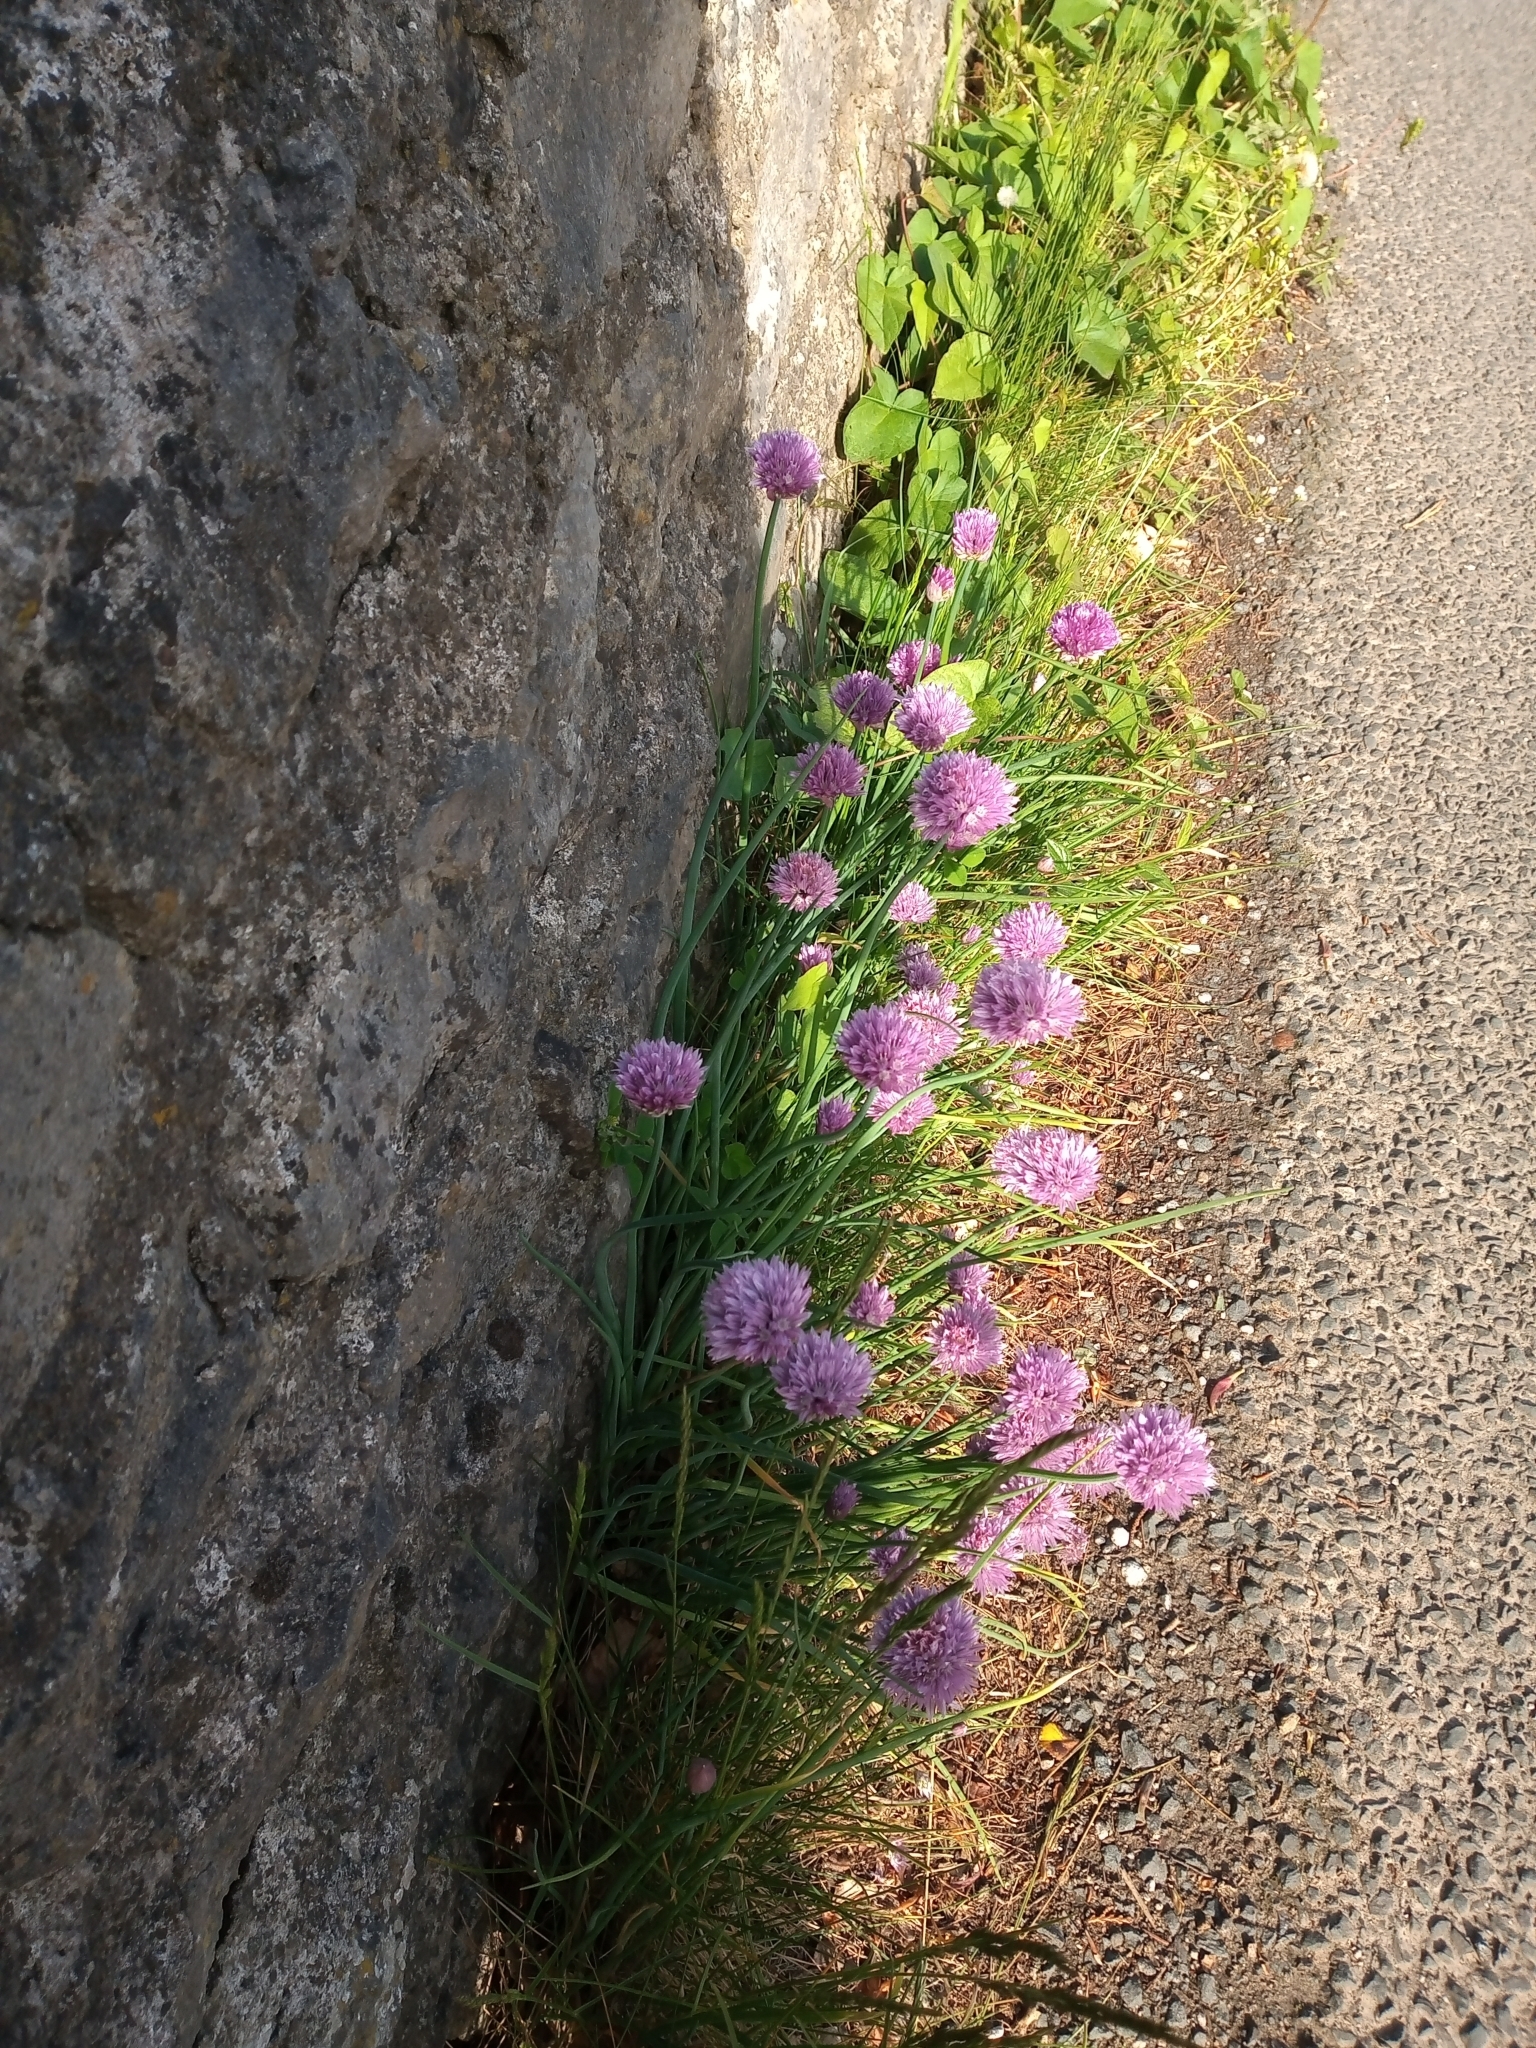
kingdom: Plantae
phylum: Tracheophyta
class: Liliopsida
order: Asparagales
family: Amaryllidaceae
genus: Allium
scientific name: Allium schoenoprasum
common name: Chives
